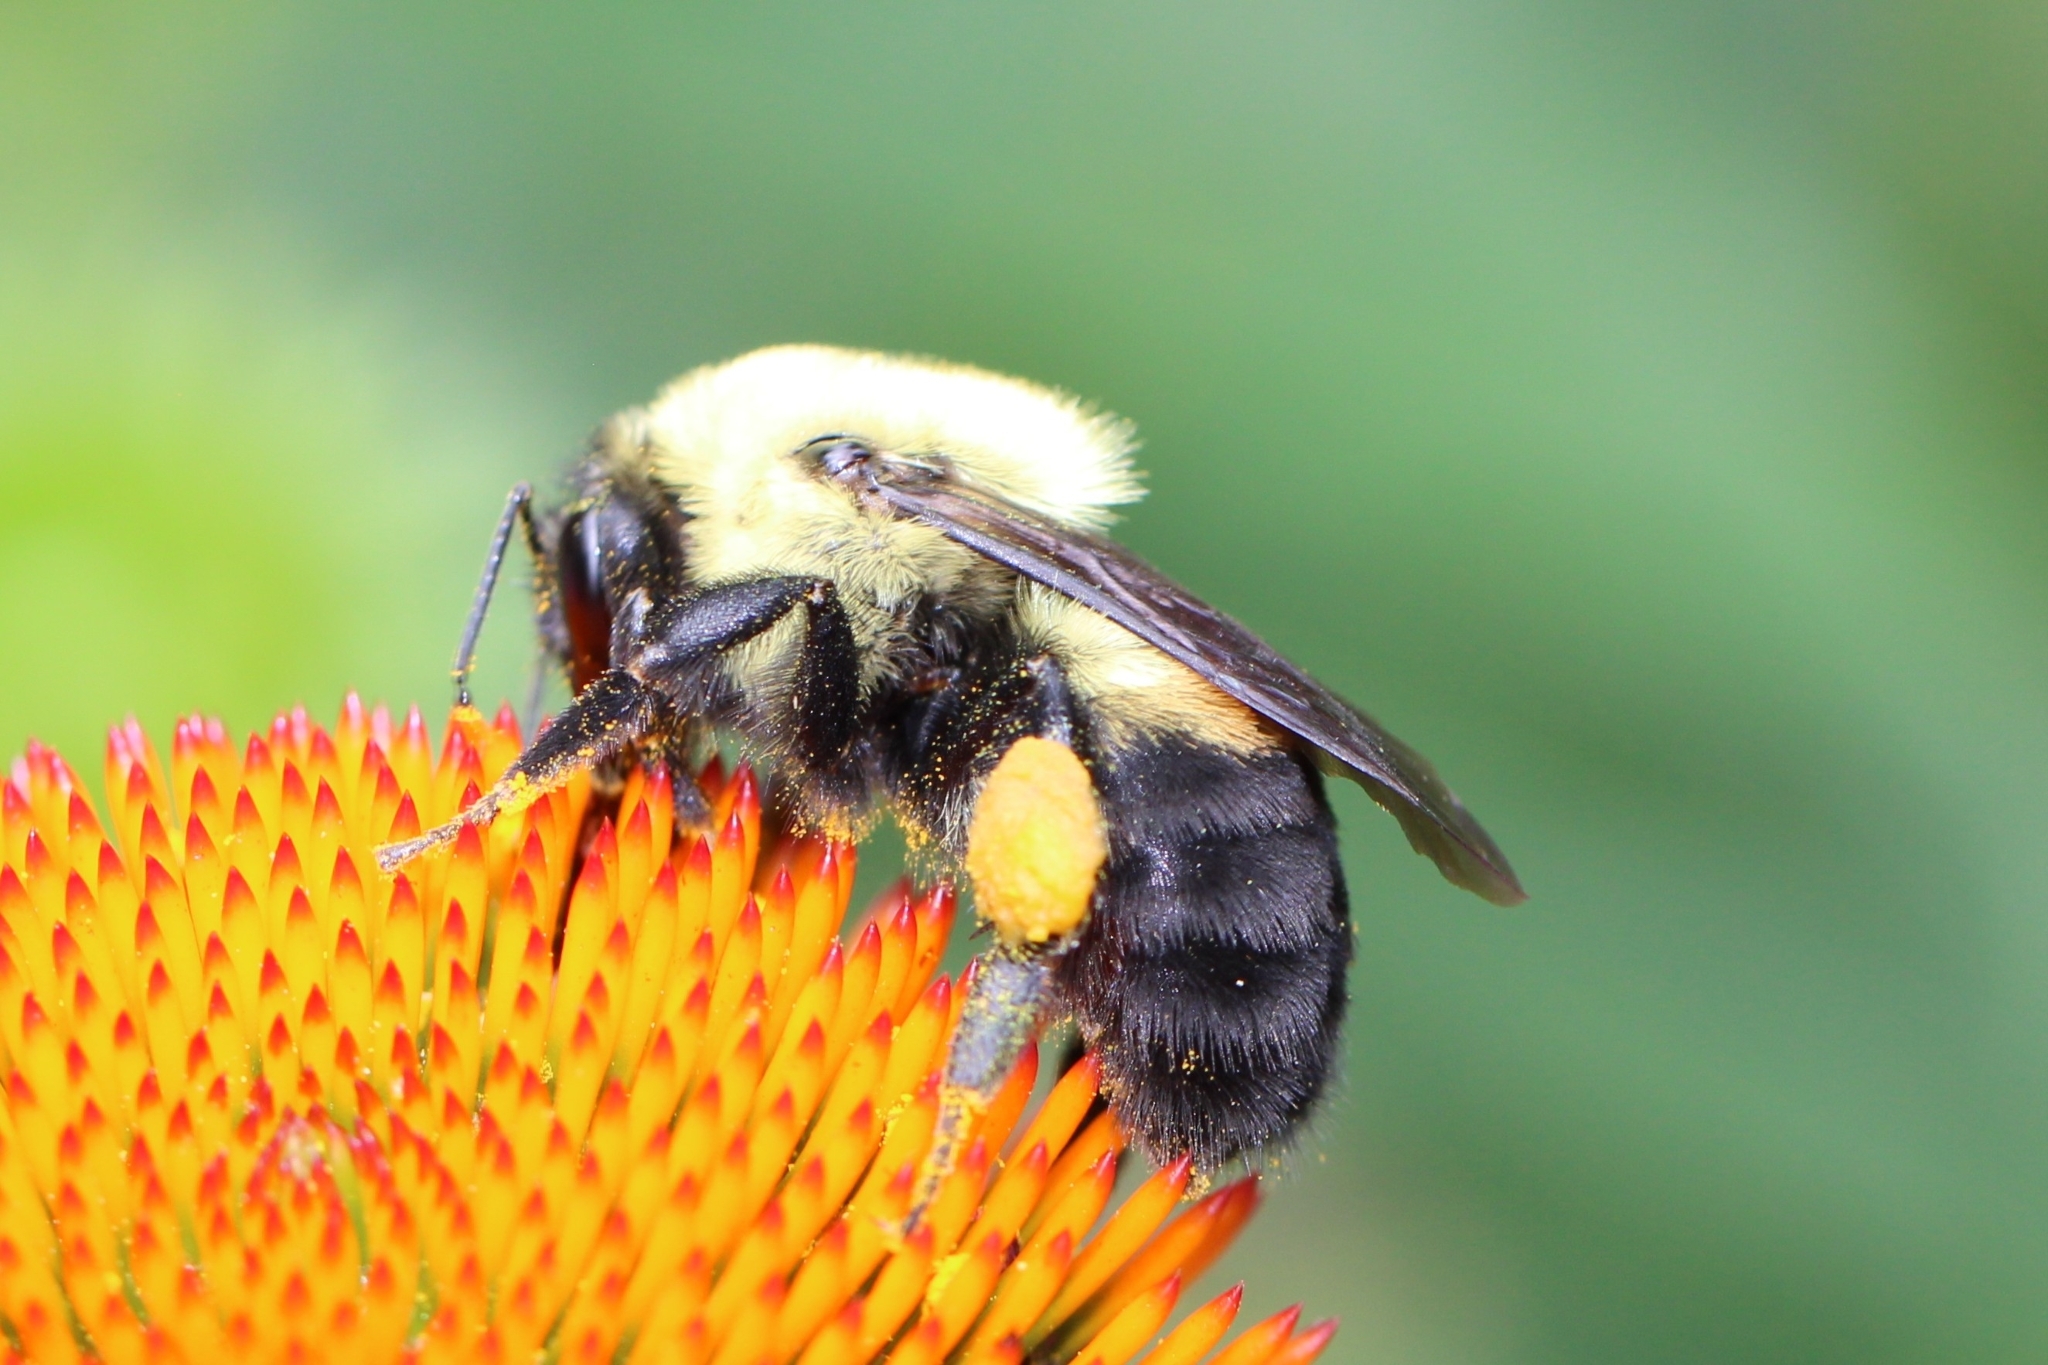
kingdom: Animalia
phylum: Arthropoda
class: Insecta
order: Hymenoptera
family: Apidae
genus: Bombus
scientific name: Bombus griseocollis
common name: Brown-belted bumble bee
